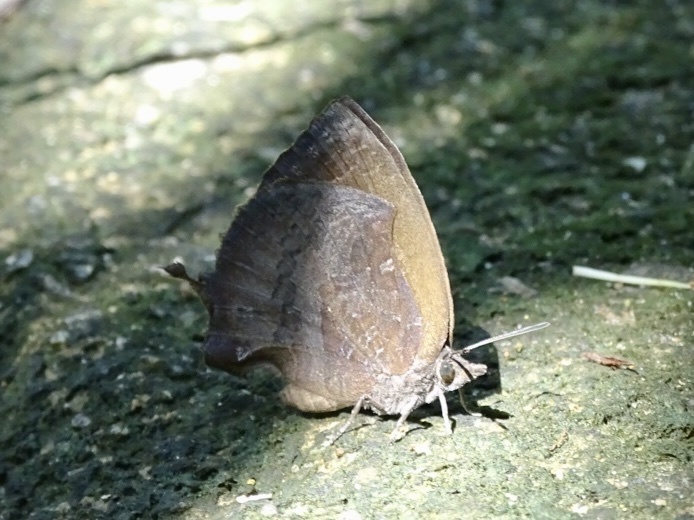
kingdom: Animalia
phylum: Arthropoda
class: Insecta
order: Lepidoptera
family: Lycaenidae
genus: Mahathala
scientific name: Mahathala ameria
